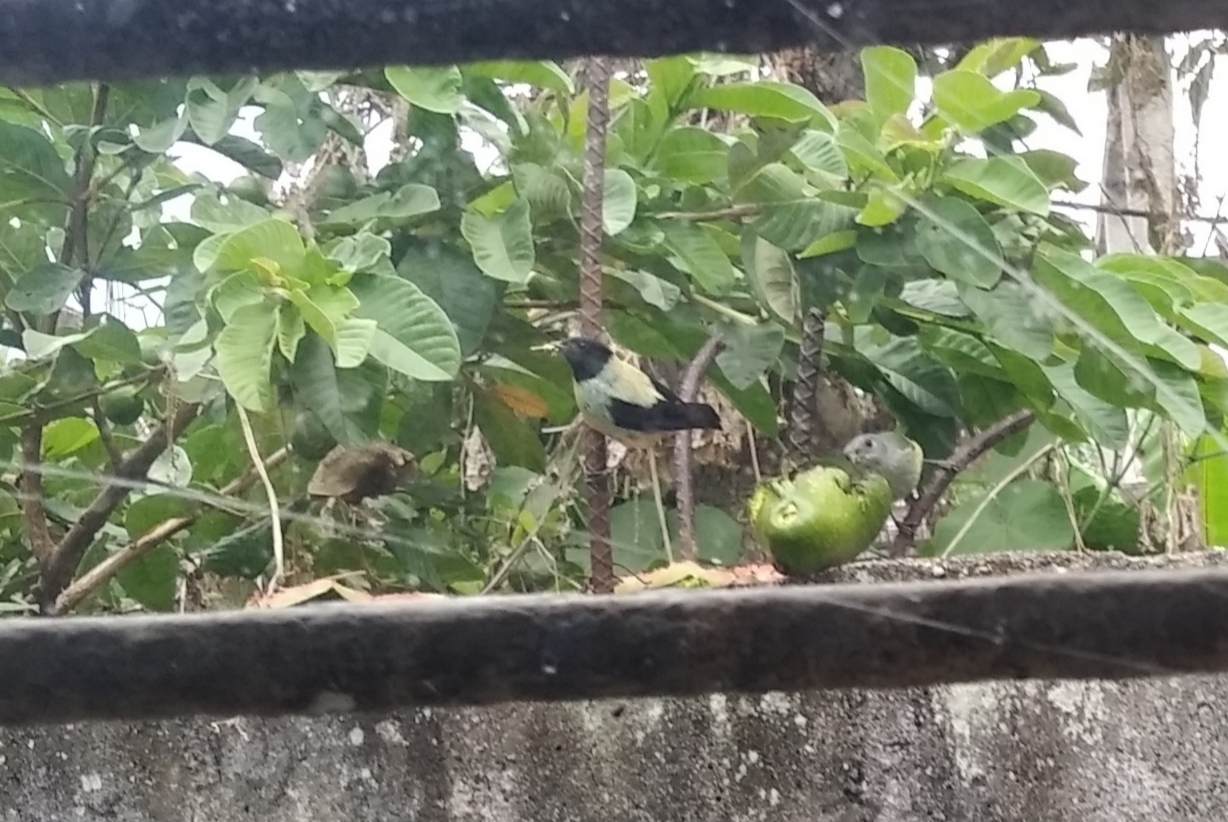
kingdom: Animalia
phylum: Chordata
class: Aves
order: Passeriformes
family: Thraupidae
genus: Stilpnia
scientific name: Stilpnia cyanoptera
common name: Black-headed tanager
